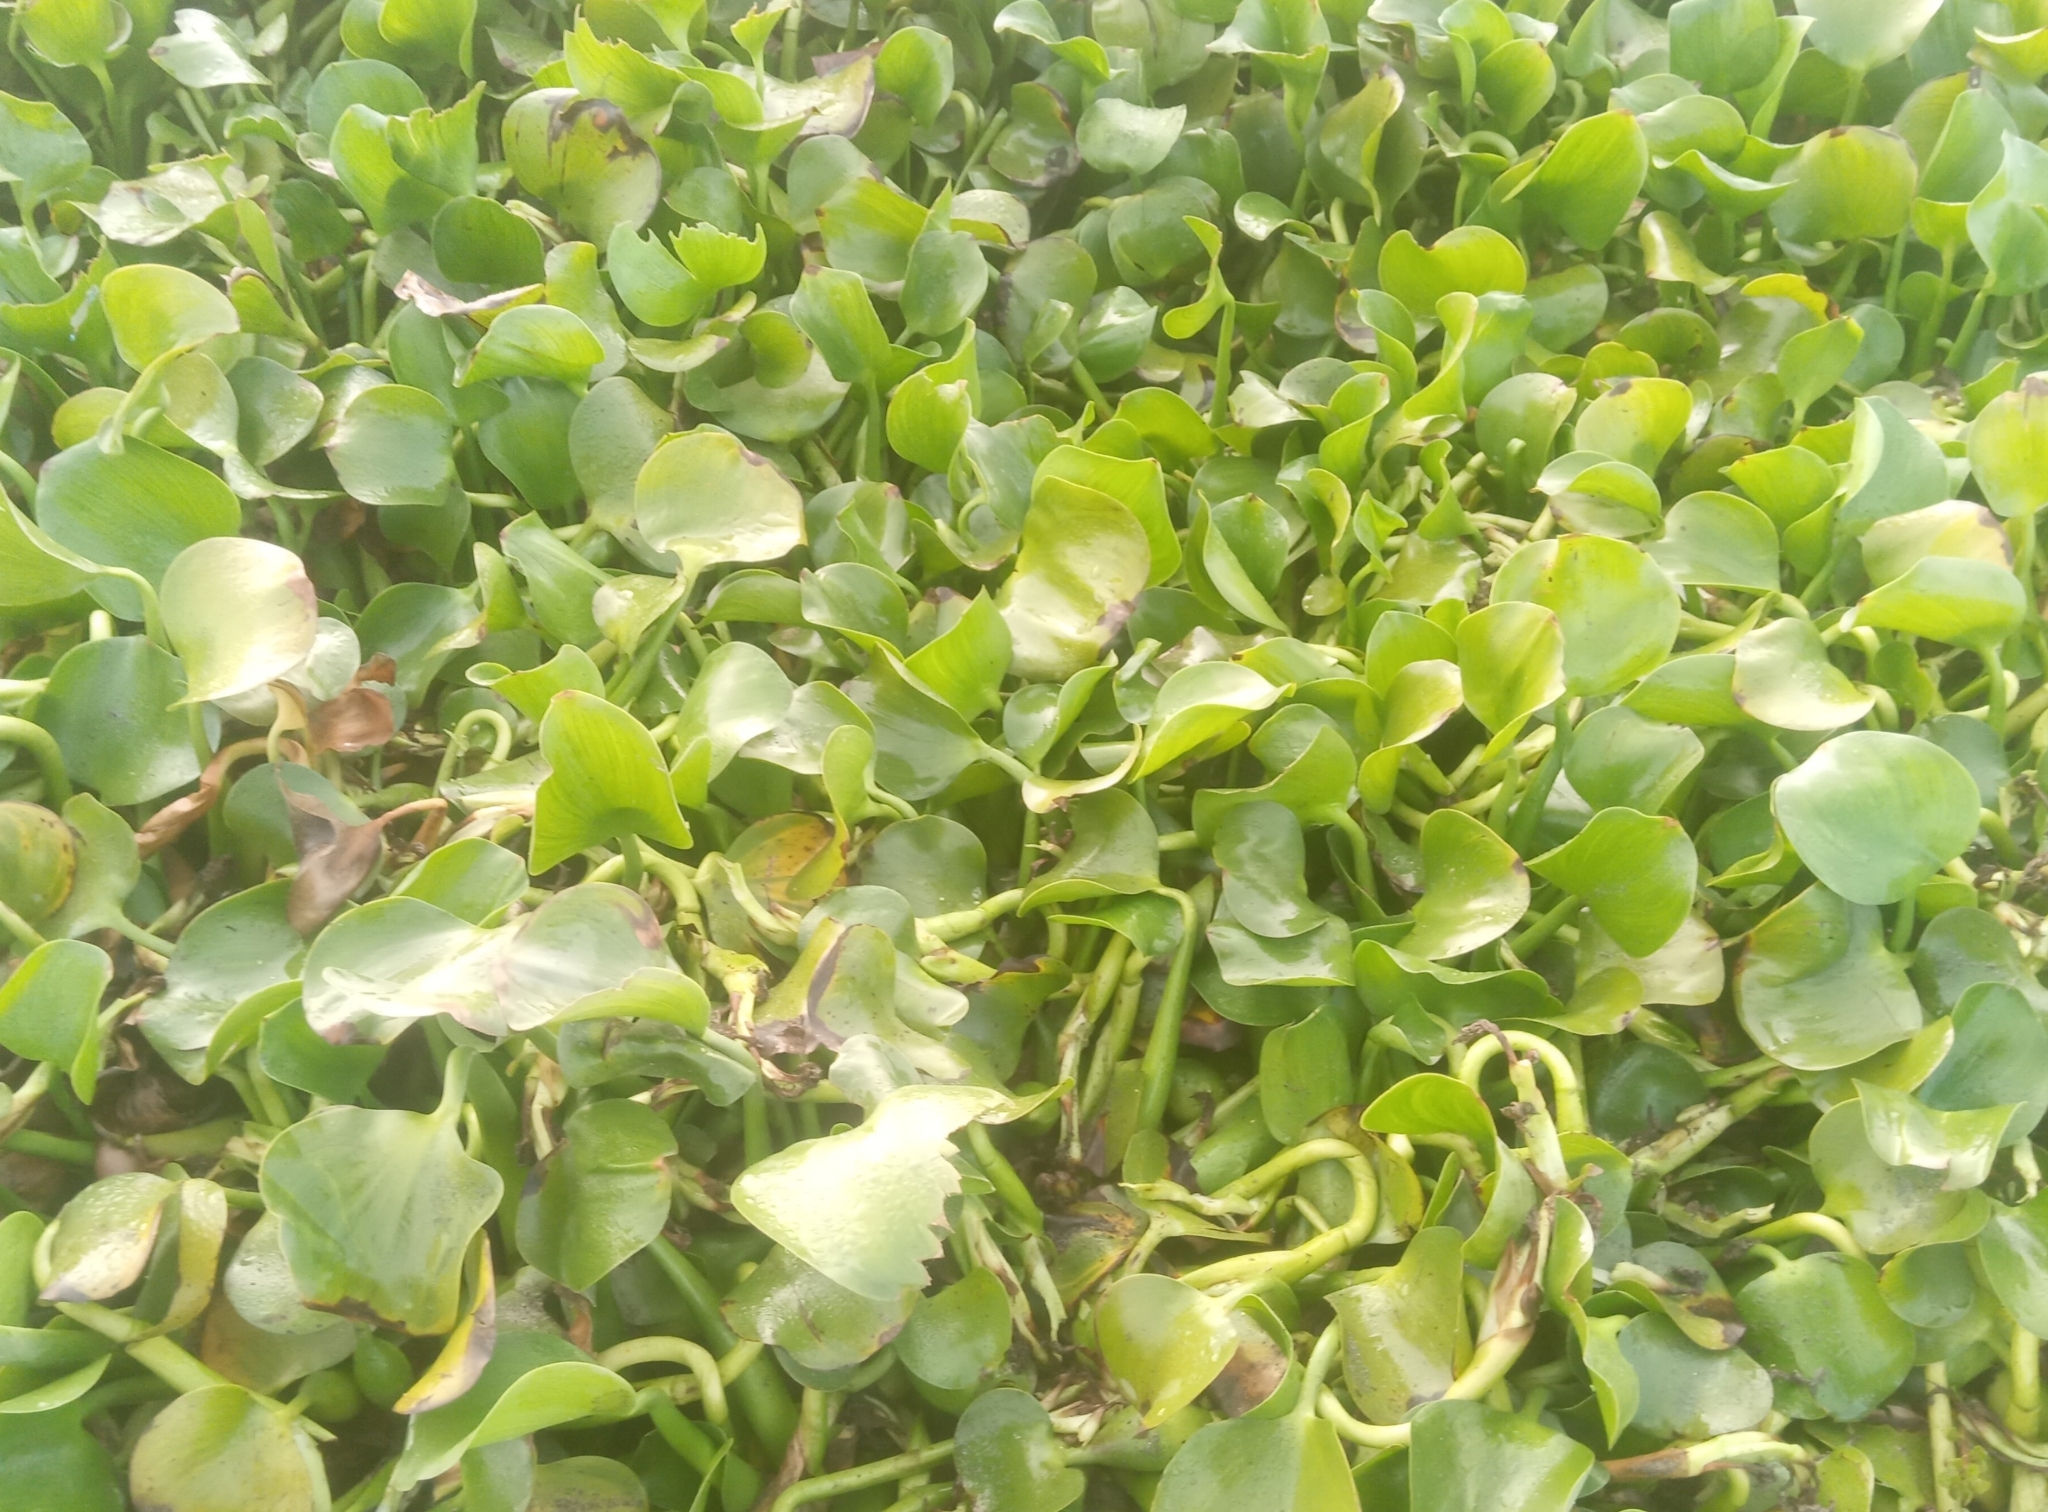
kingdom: Plantae
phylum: Tracheophyta
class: Liliopsida
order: Commelinales
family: Pontederiaceae
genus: Pontederia
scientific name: Pontederia crassipes
